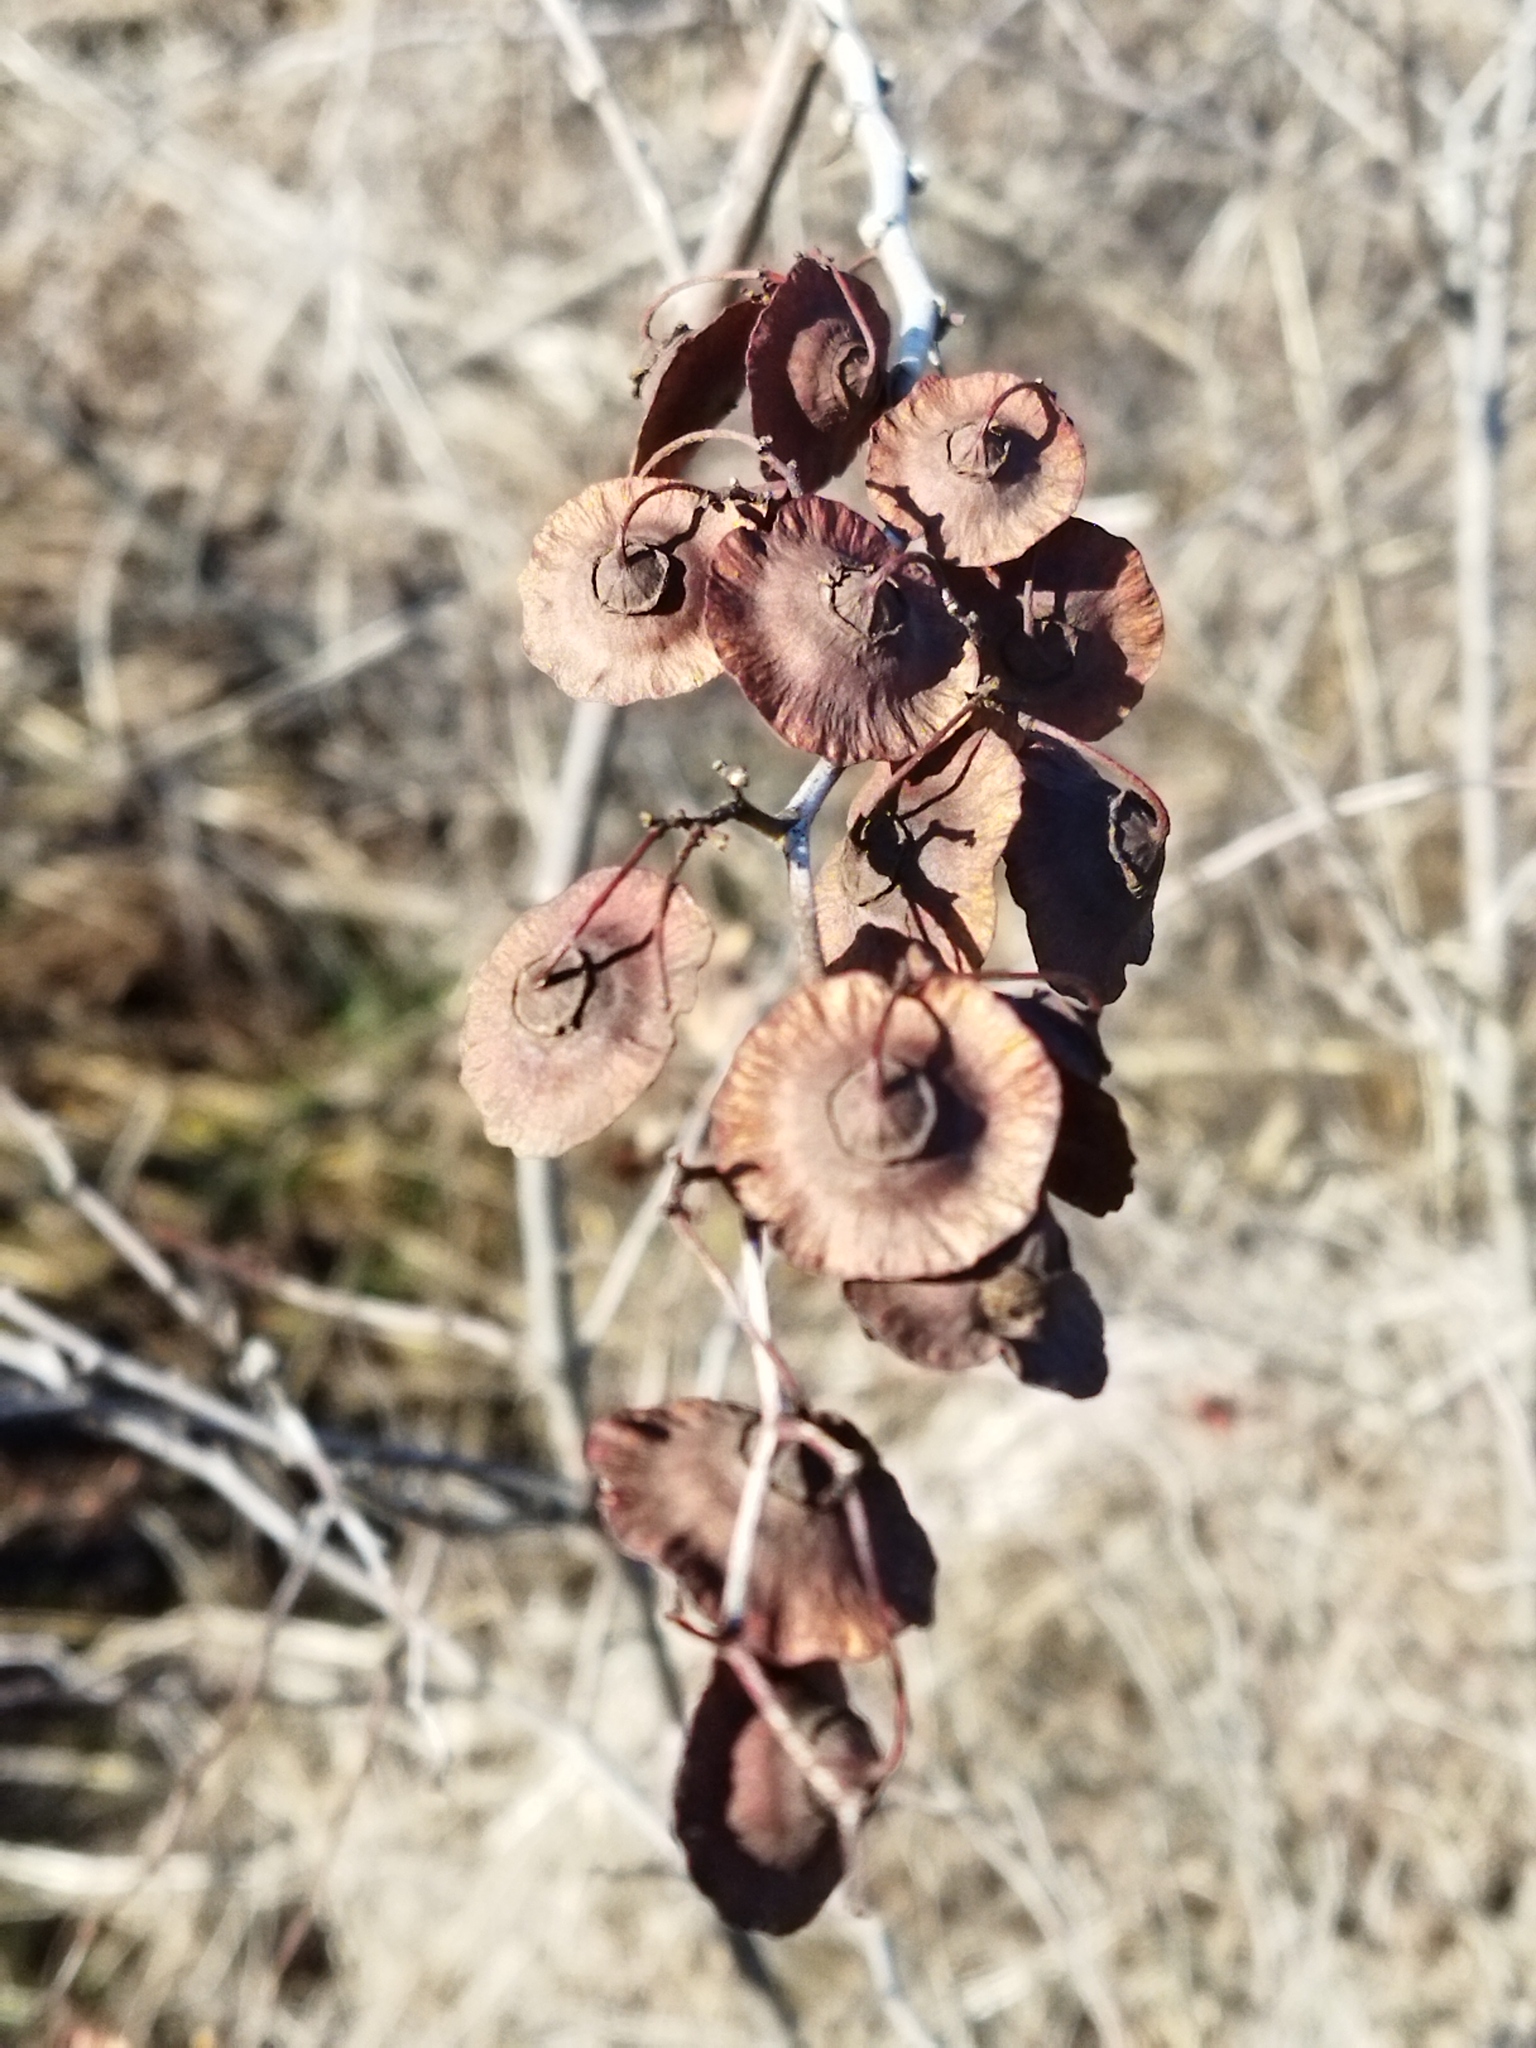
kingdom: Plantae
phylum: Tracheophyta
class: Magnoliopsida
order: Rosales
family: Rhamnaceae
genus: Paliurus
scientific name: Paliurus spina-christi
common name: Jeruselem thorn
